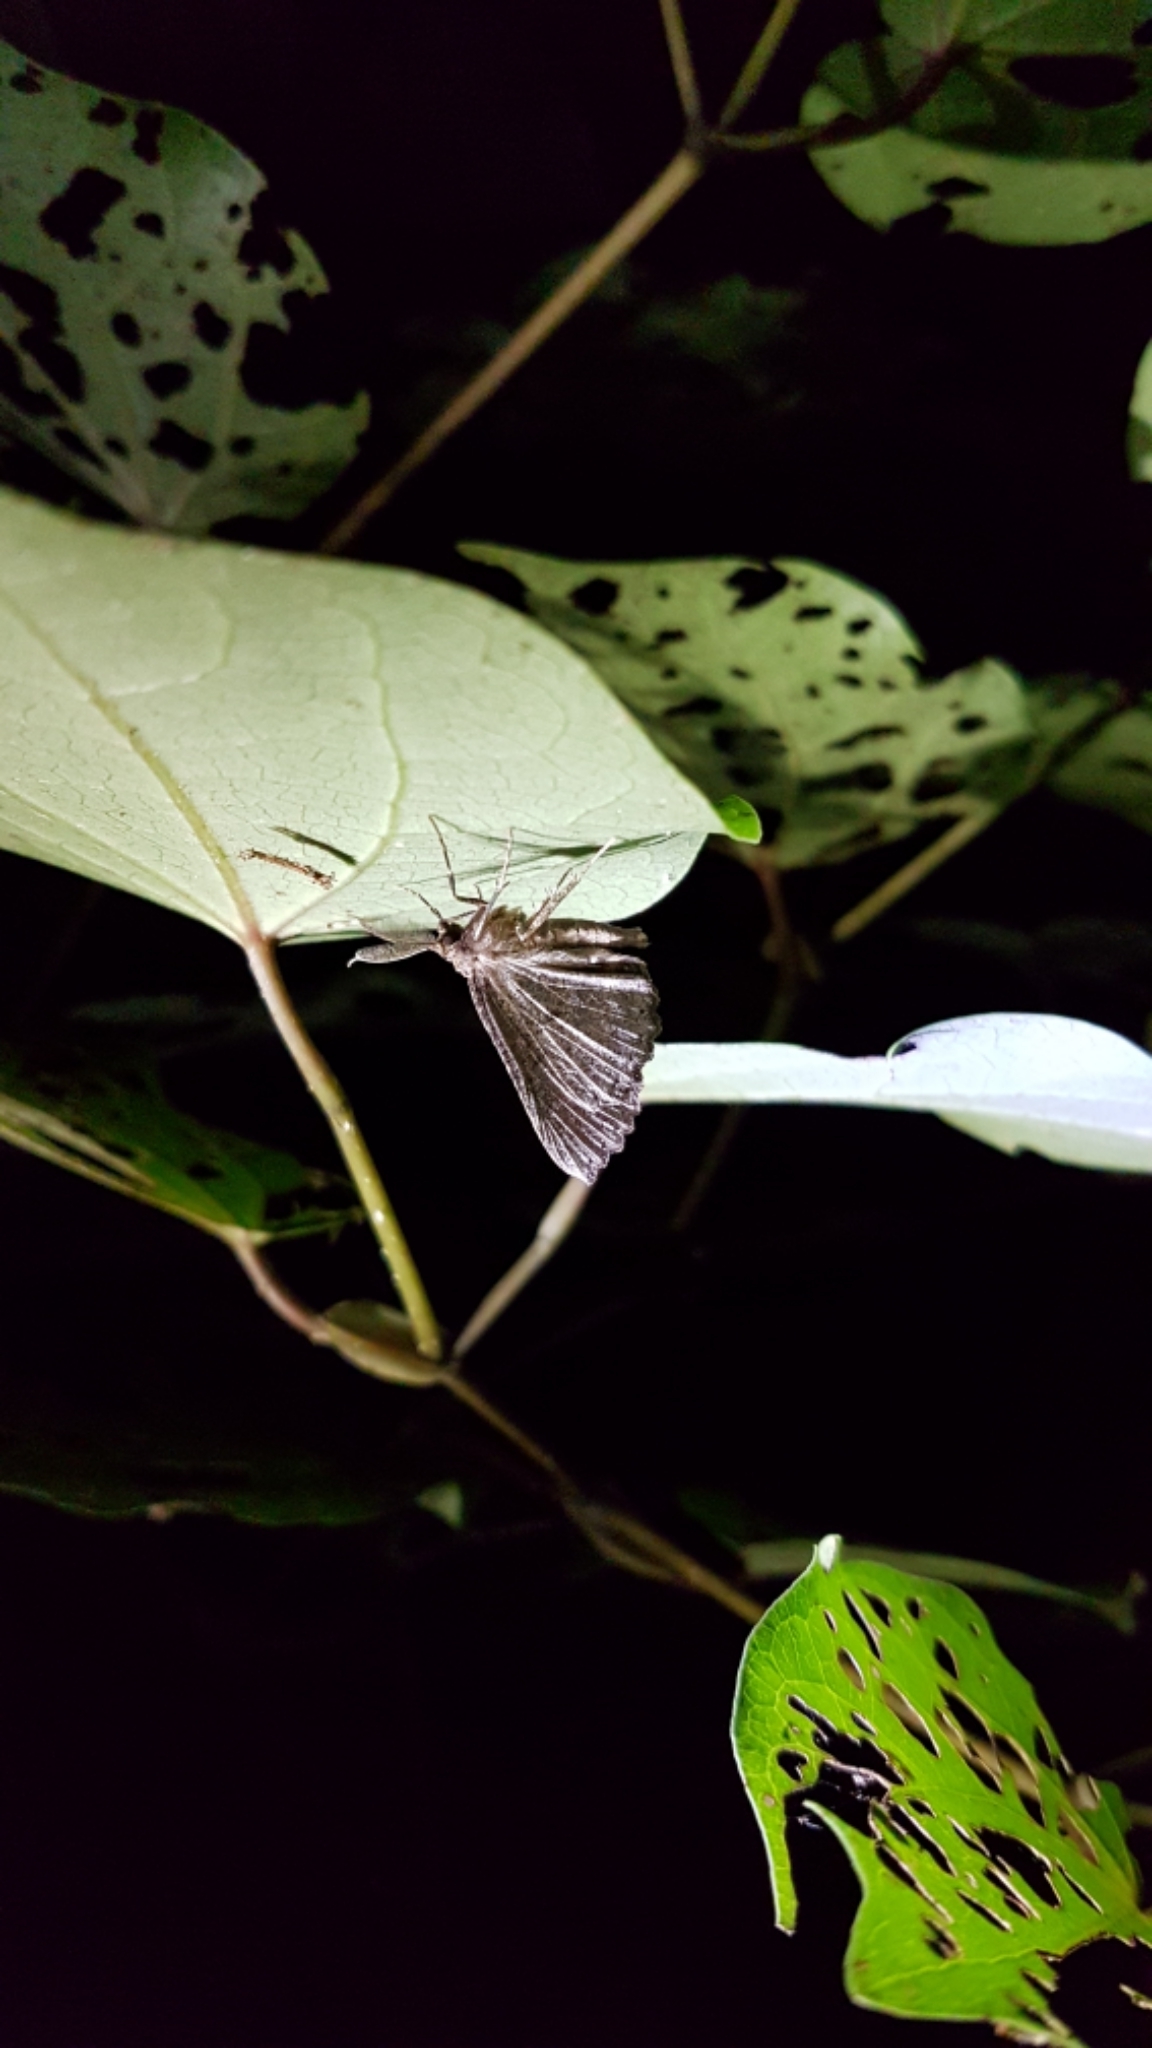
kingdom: Animalia
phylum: Arthropoda
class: Insecta
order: Lepidoptera
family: Geometridae
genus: Cleora
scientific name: Cleora scriptaria
